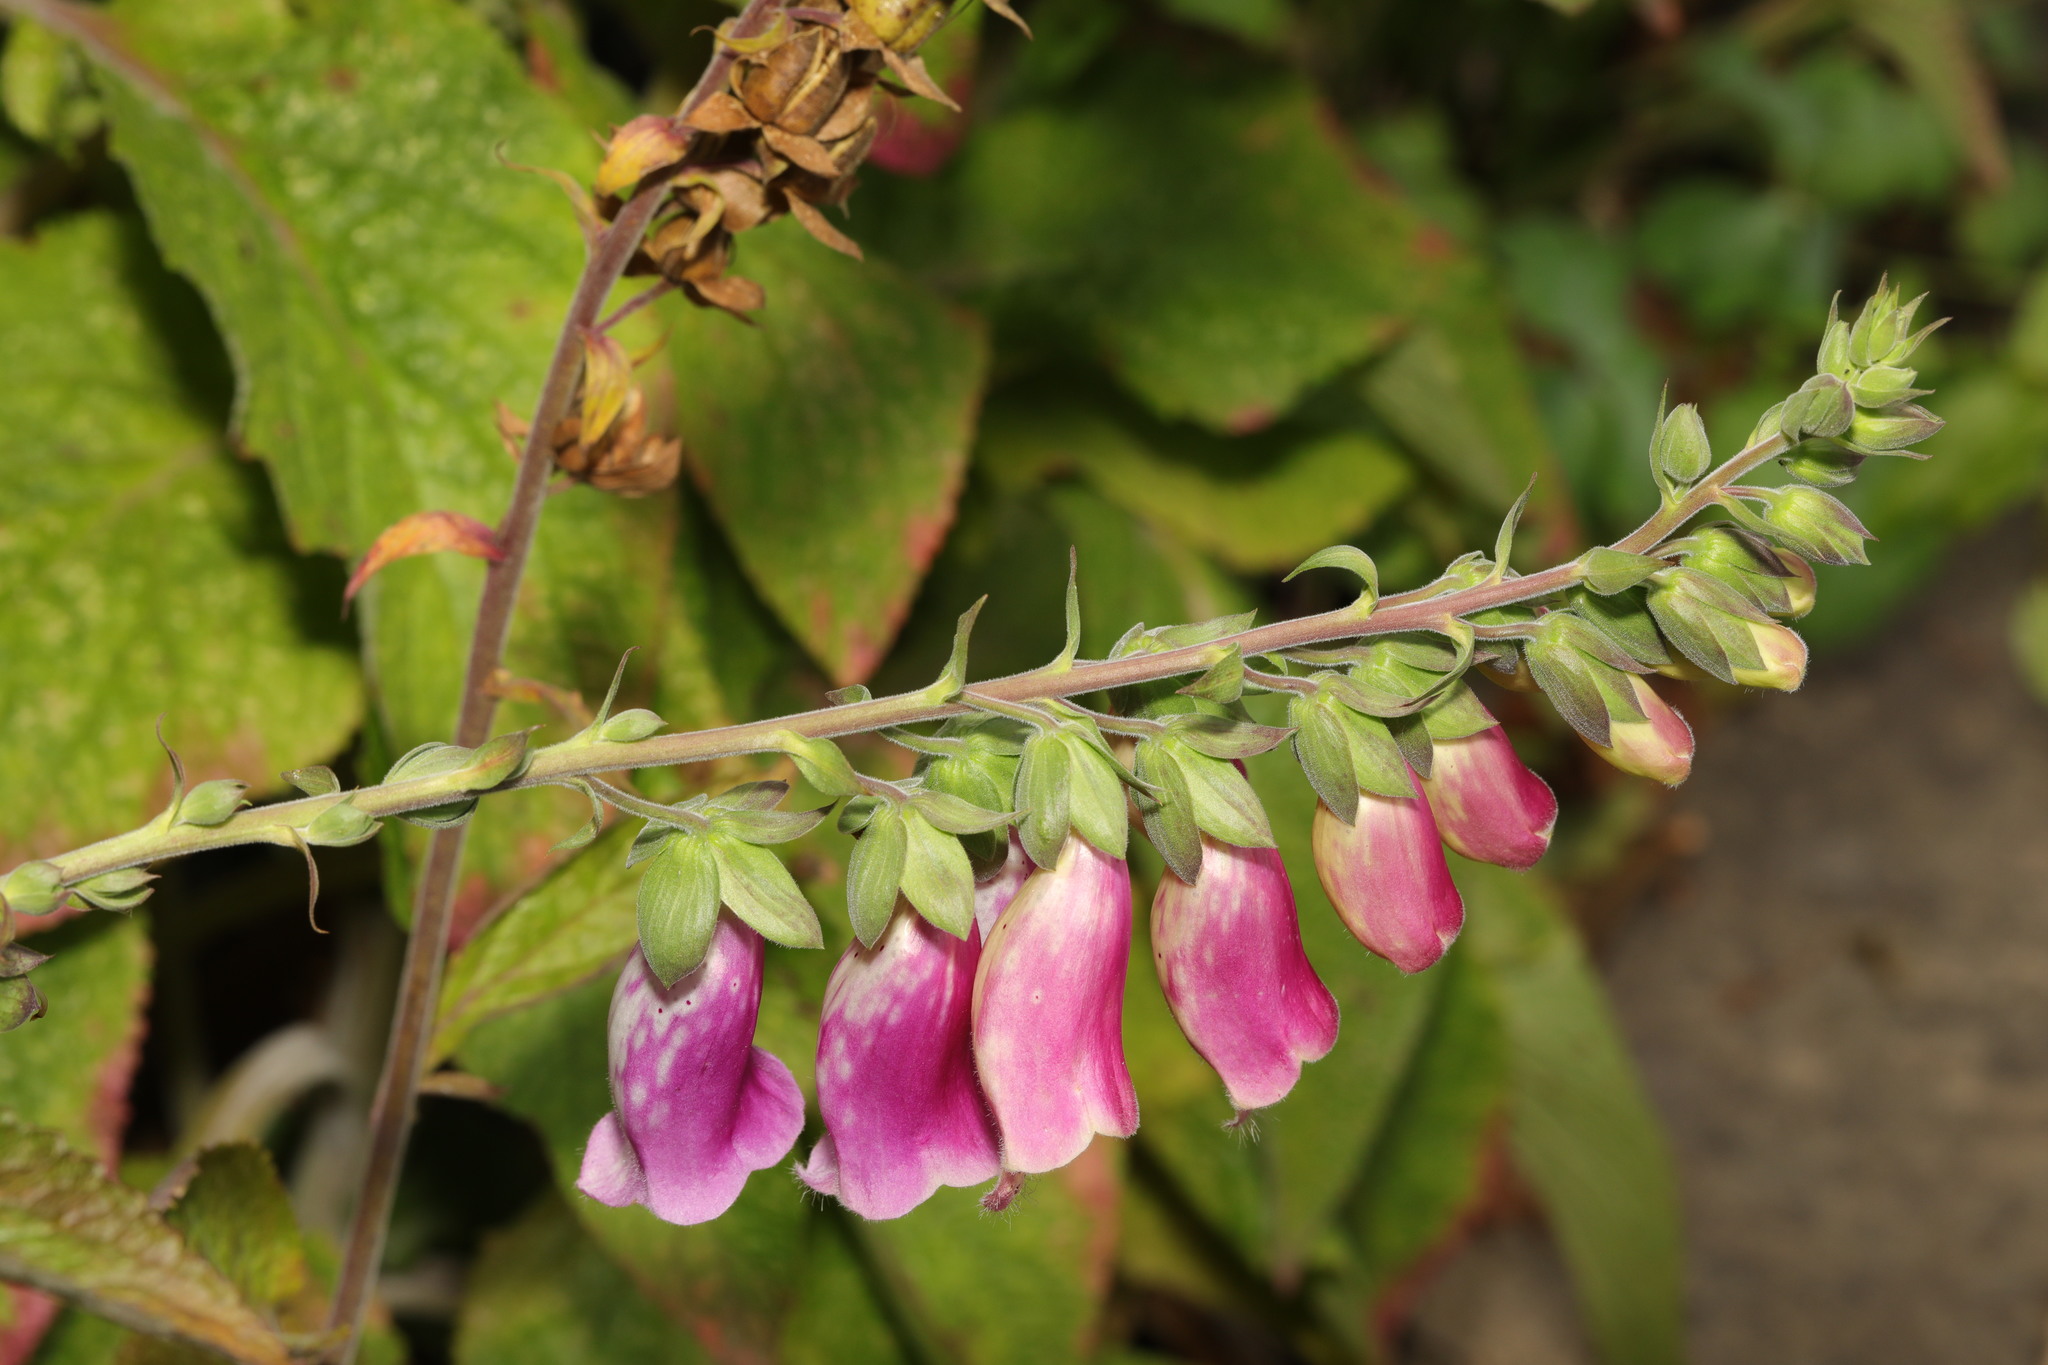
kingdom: Plantae
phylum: Tracheophyta
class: Magnoliopsida
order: Lamiales
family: Plantaginaceae
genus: Digitalis
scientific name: Digitalis purpurea
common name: Foxglove
